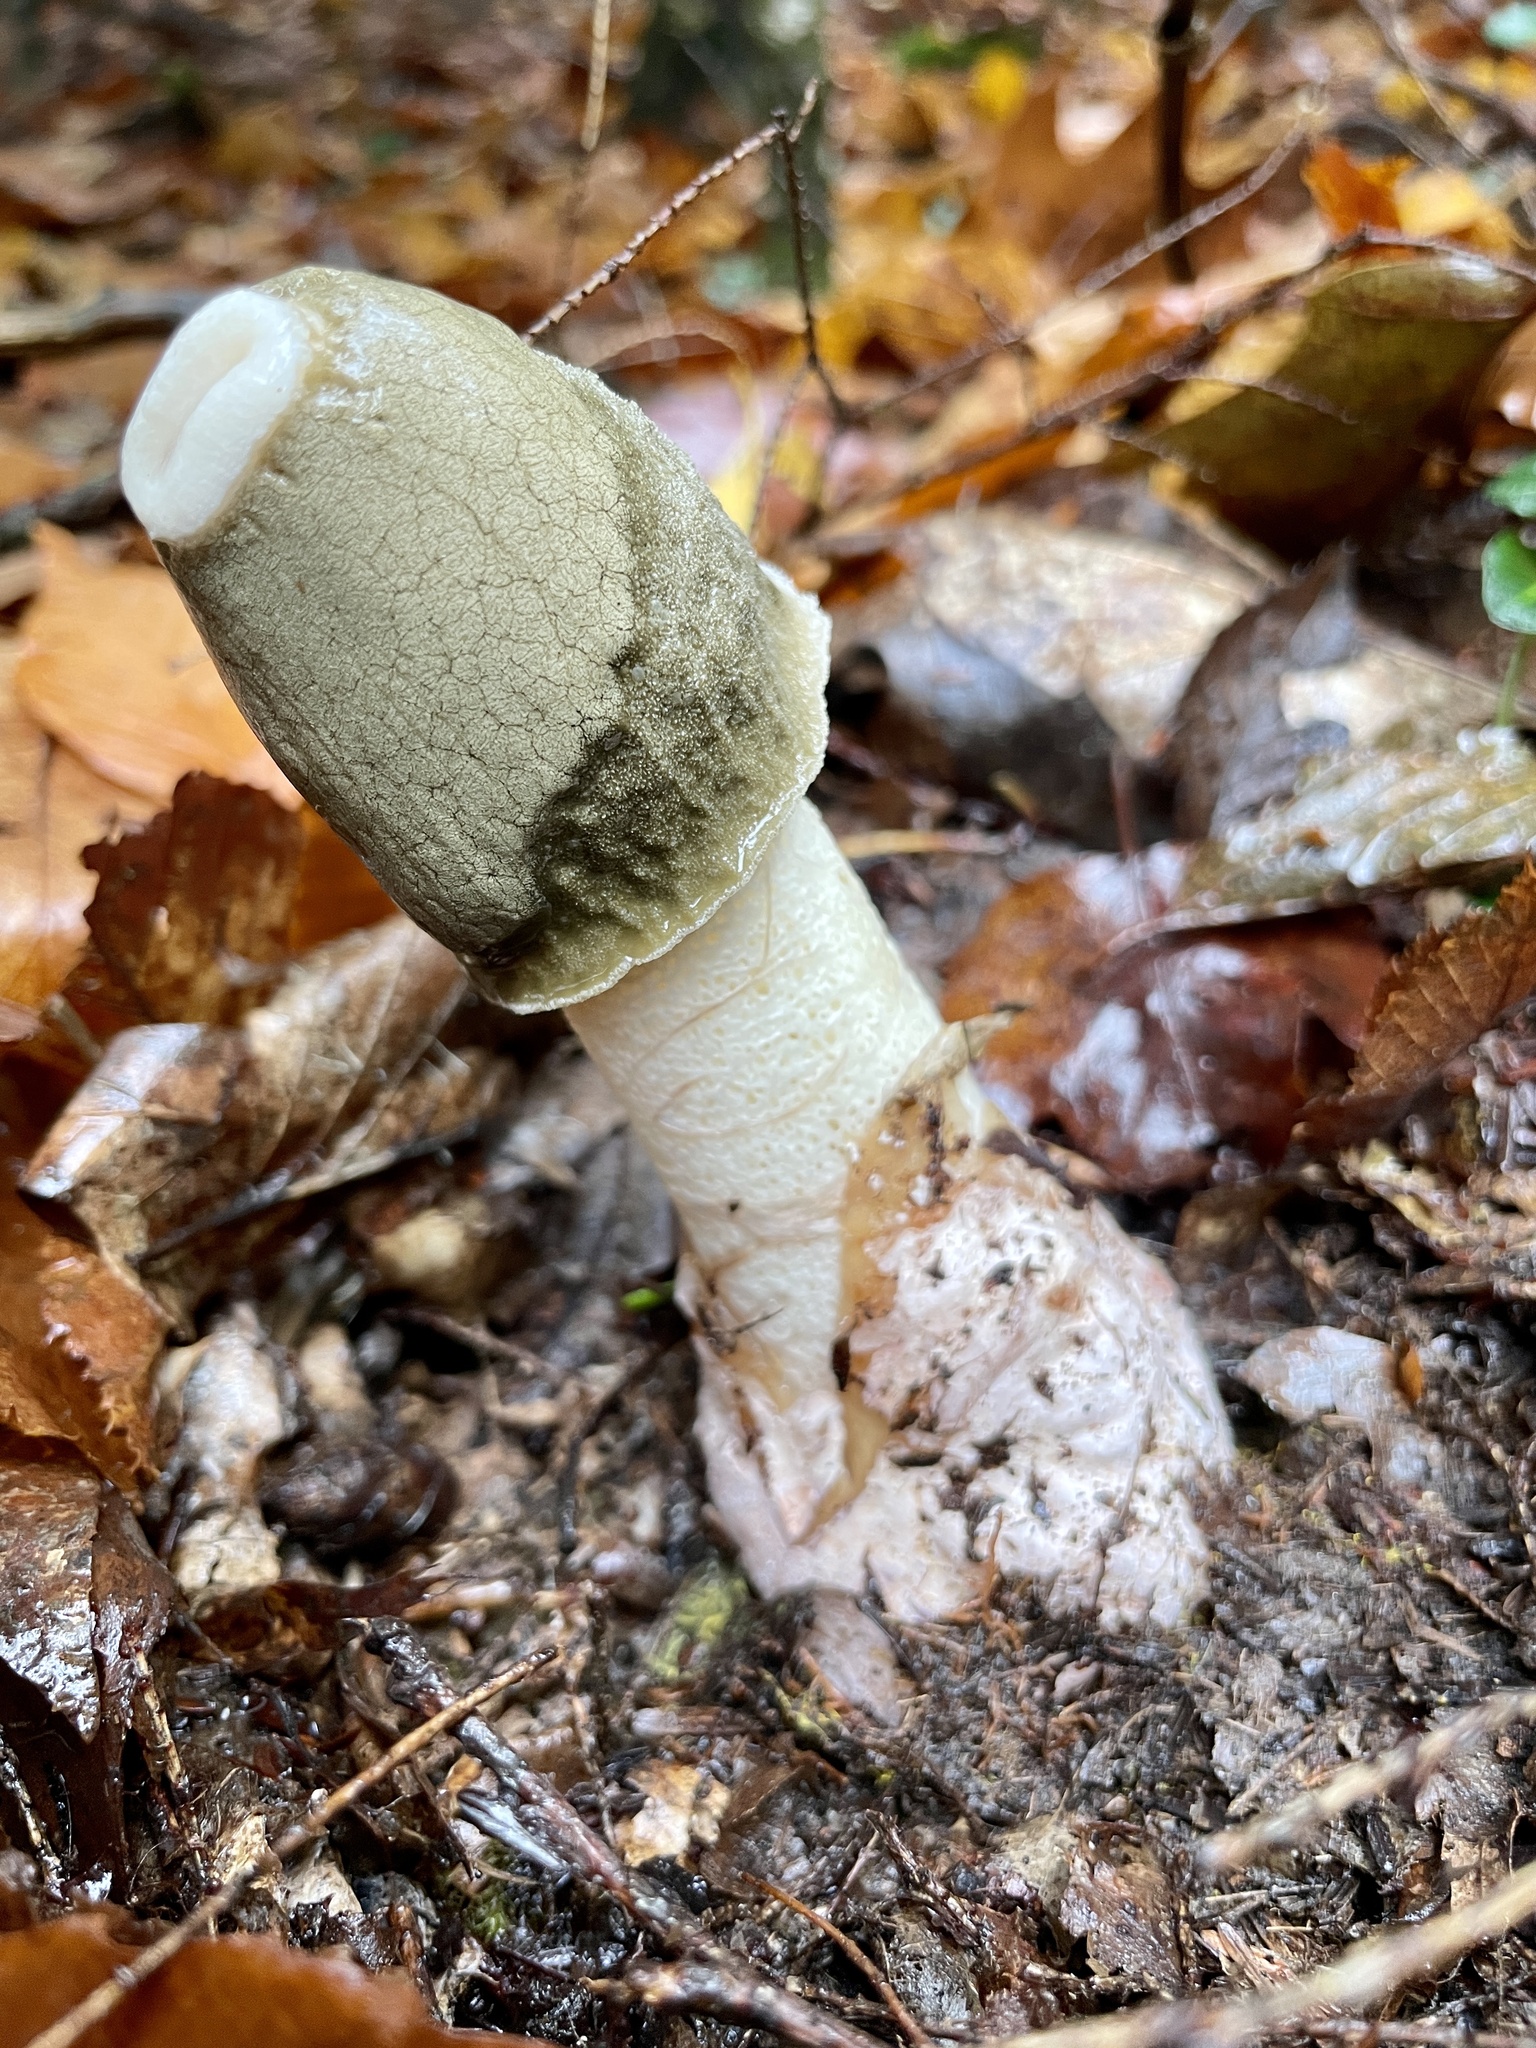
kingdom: Fungi
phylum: Basidiomycota
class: Agaricomycetes
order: Phallales
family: Phallaceae
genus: Phallus
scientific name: Phallus ravenelii
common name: Ravenel's stinkhorn
